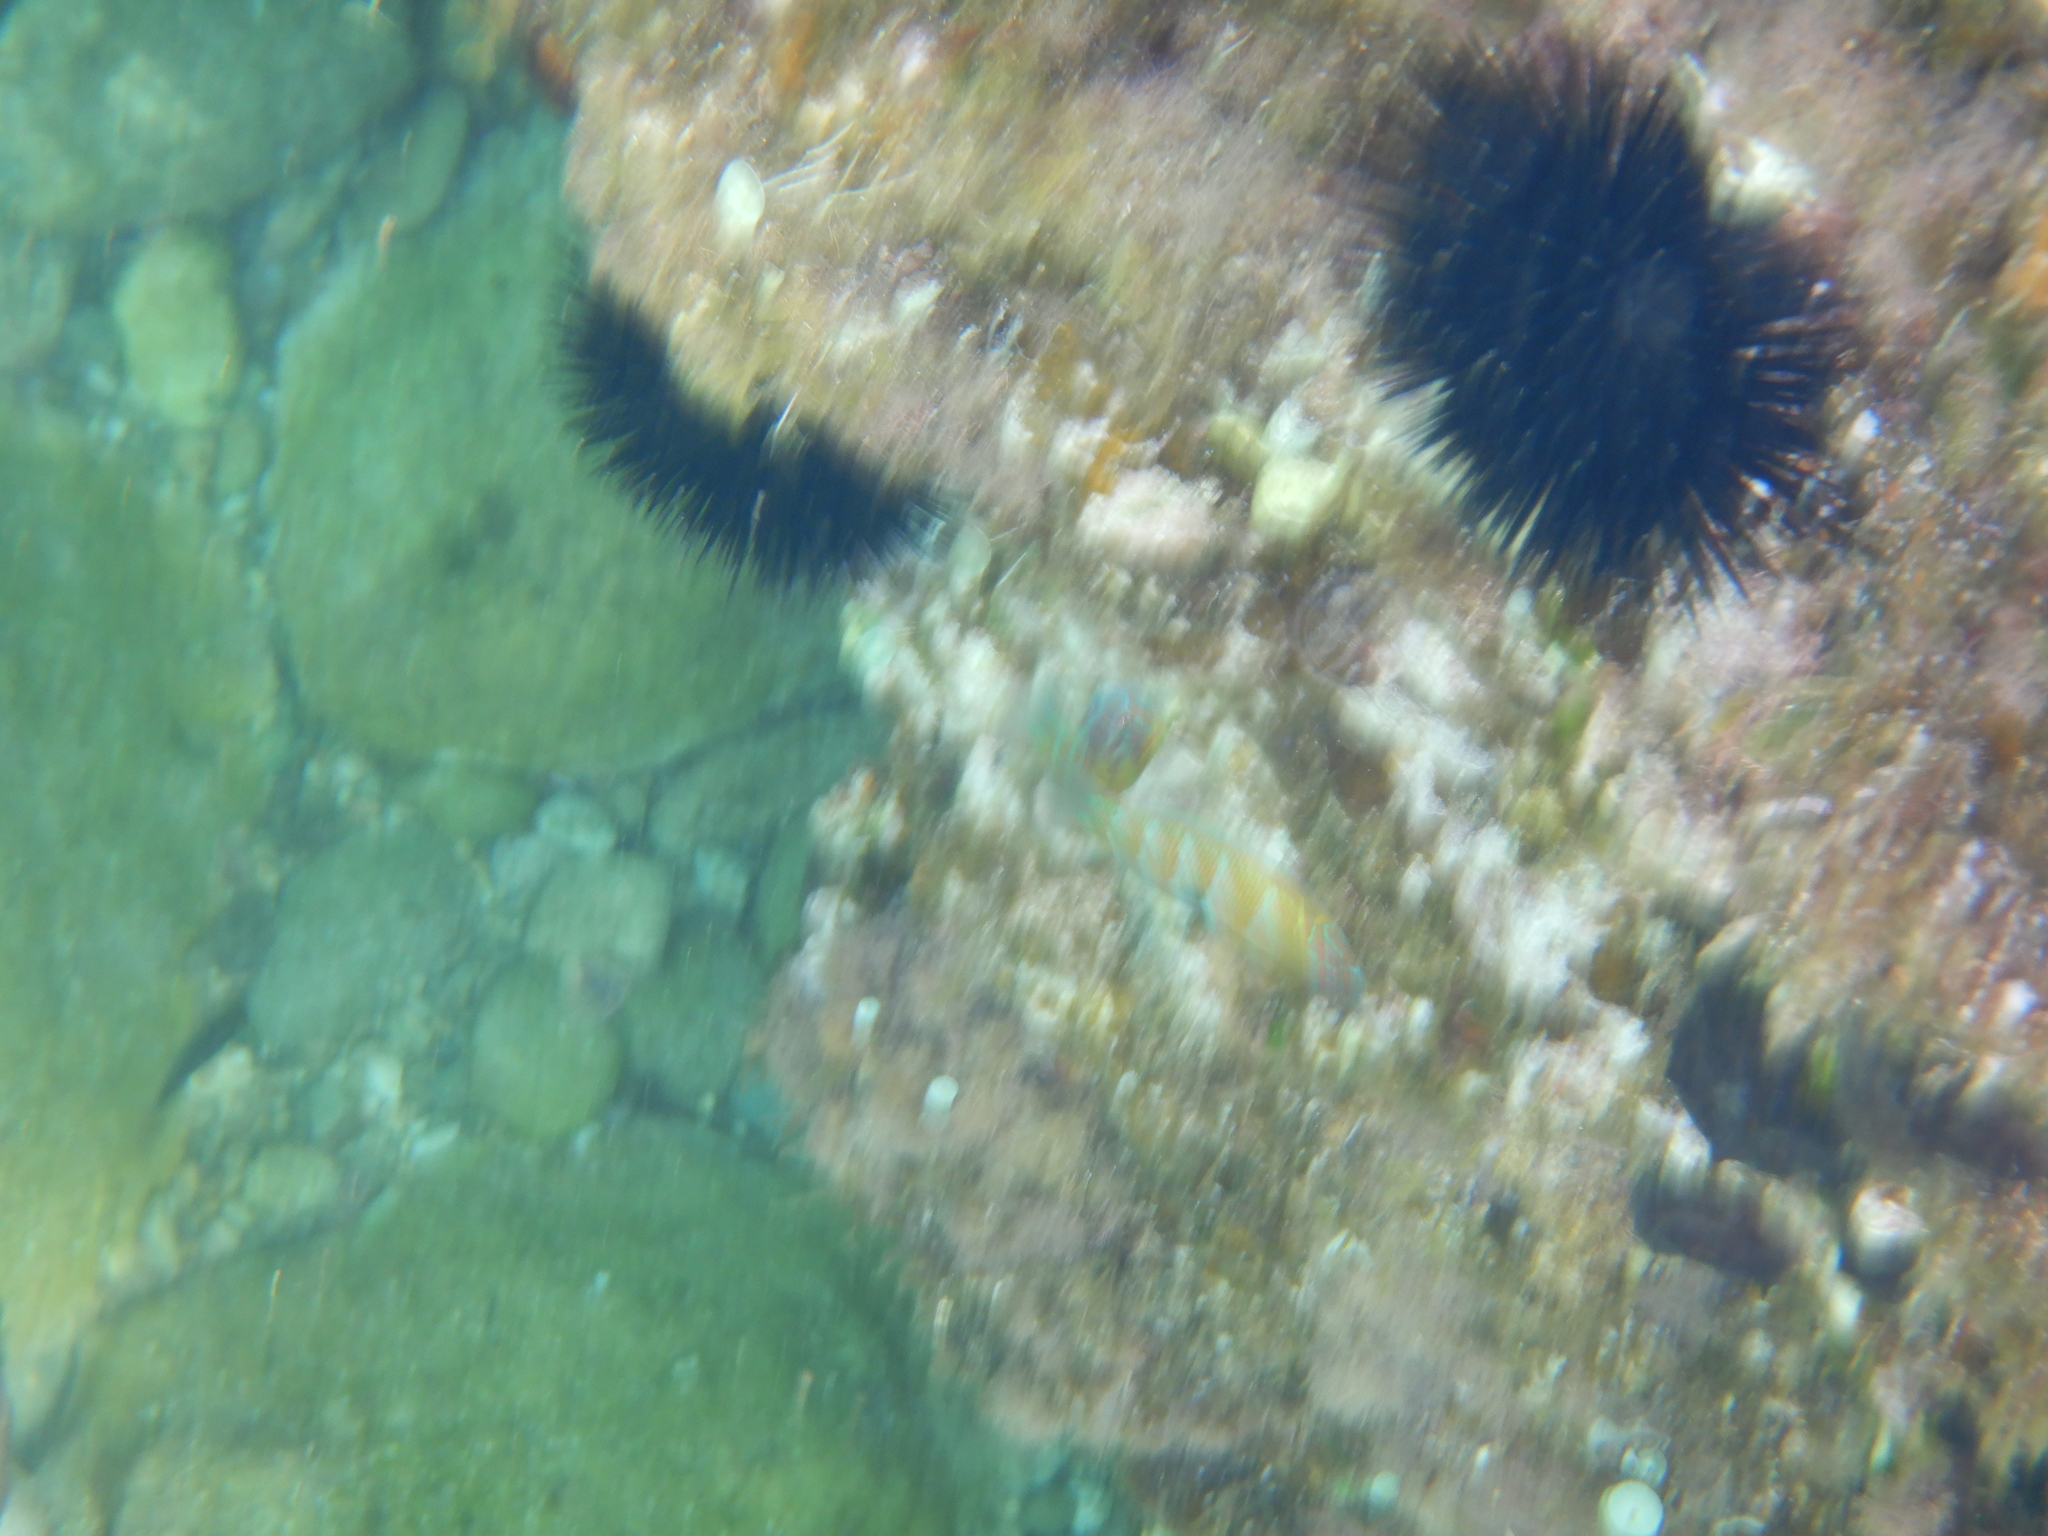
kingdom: Animalia
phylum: Echinodermata
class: Echinoidea
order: Arbacioida
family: Arbaciidae
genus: Arbacia
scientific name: Arbacia lixula
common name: Black sea urchin
